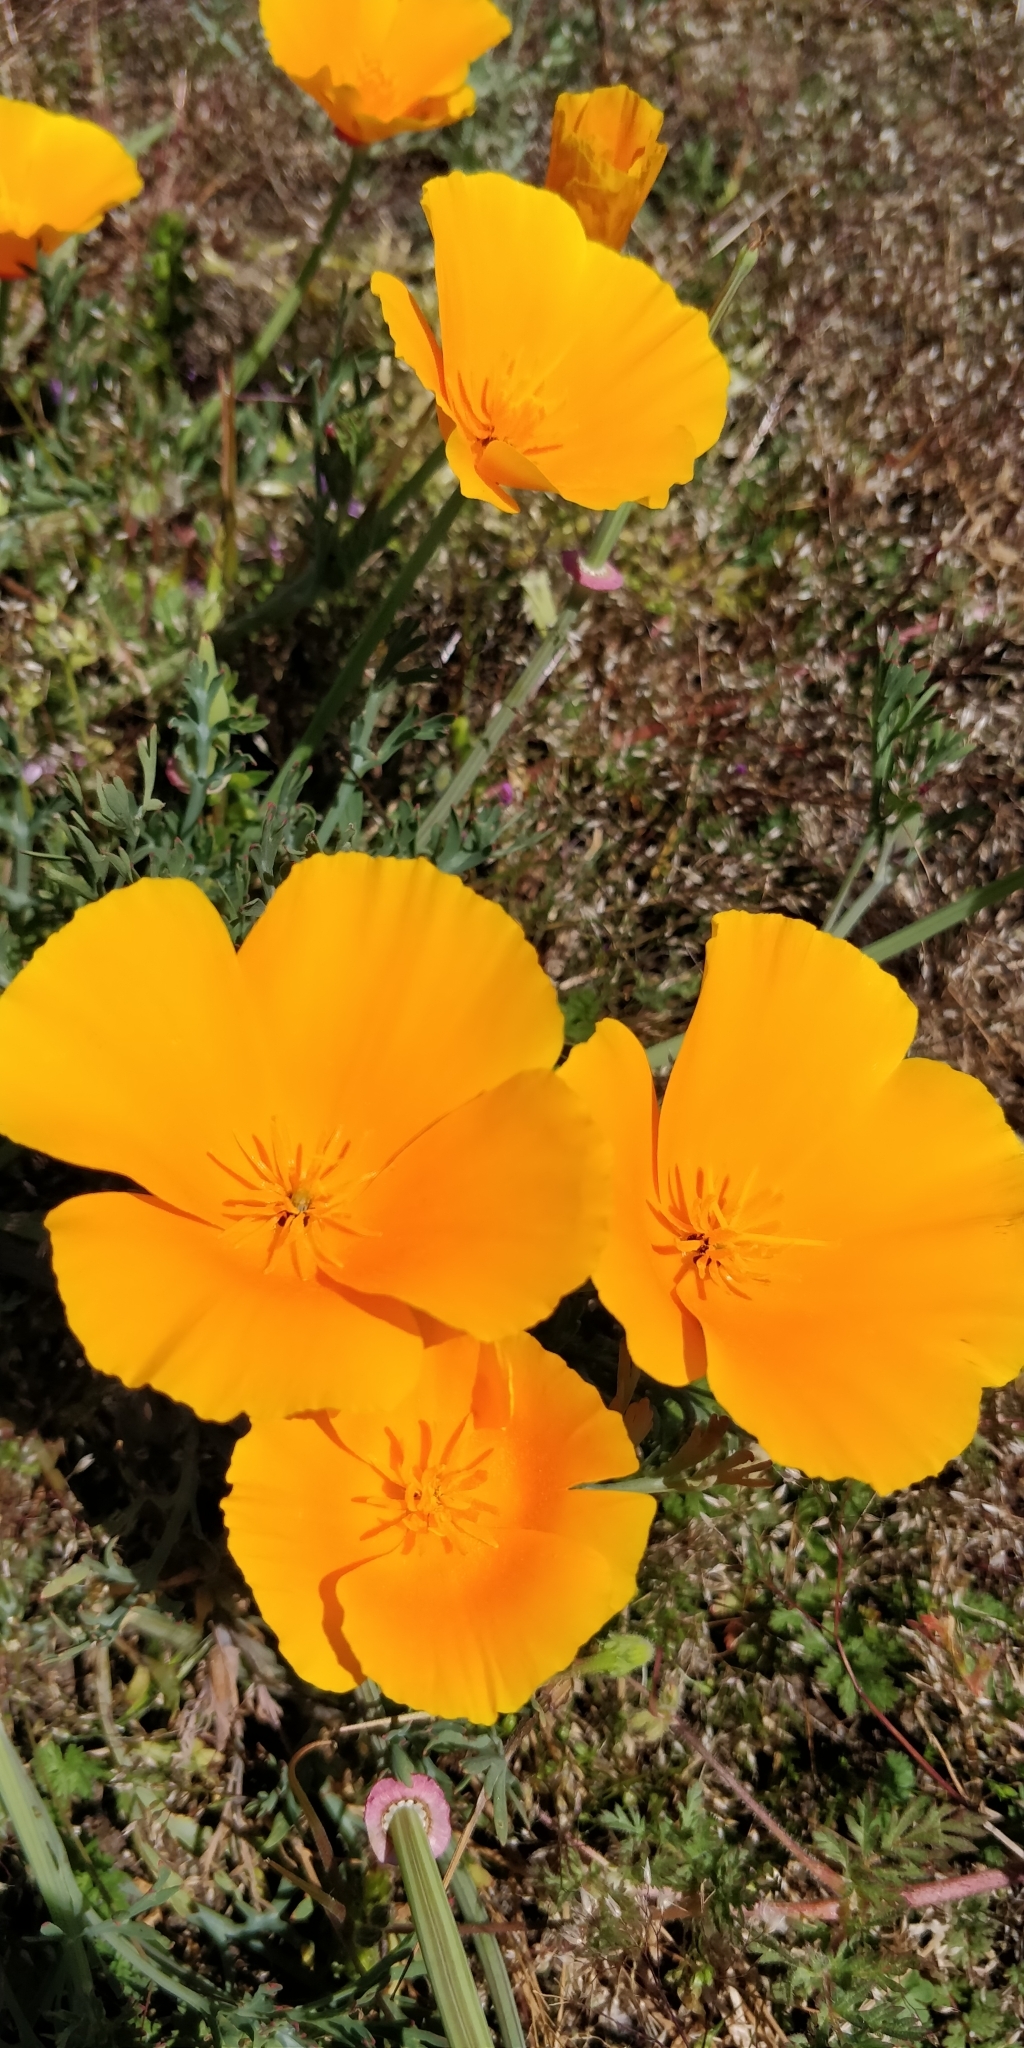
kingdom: Plantae
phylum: Tracheophyta
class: Magnoliopsida
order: Ranunculales
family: Papaveraceae
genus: Eschscholzia
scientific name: Eschscholzia californica
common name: California poppy
